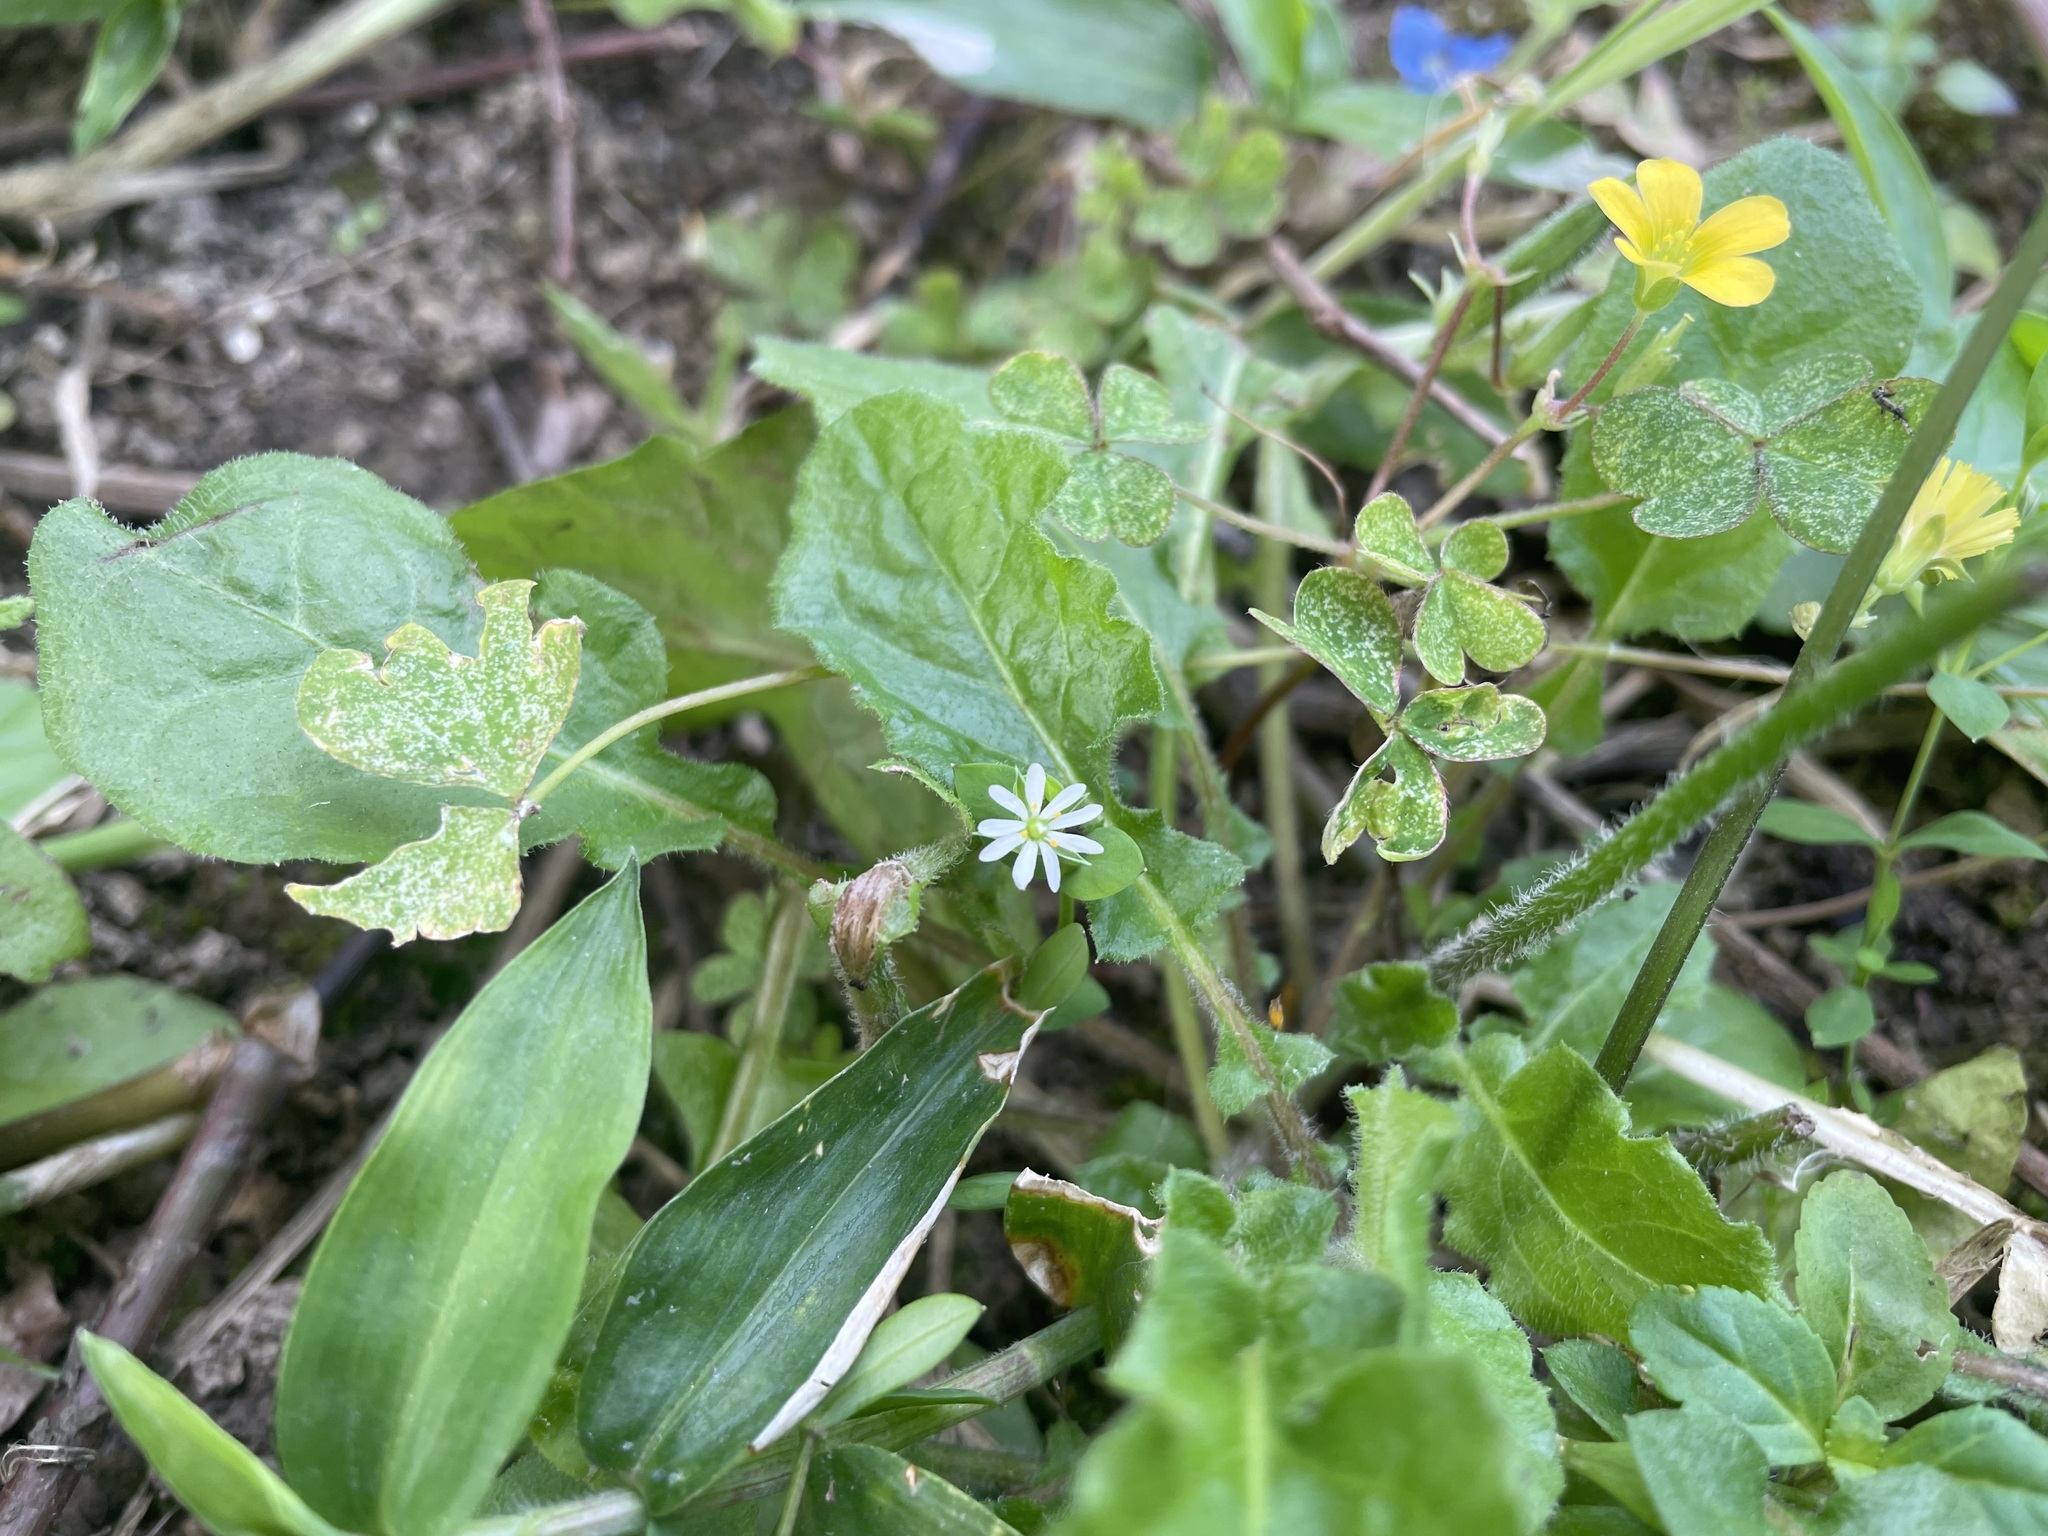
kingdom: Plantae
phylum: Tracheophyta
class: Magnoliopsida
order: Caryophyllales
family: Caryophyllaceae
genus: Stellaria
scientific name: Stellaria media
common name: Common chickweed
